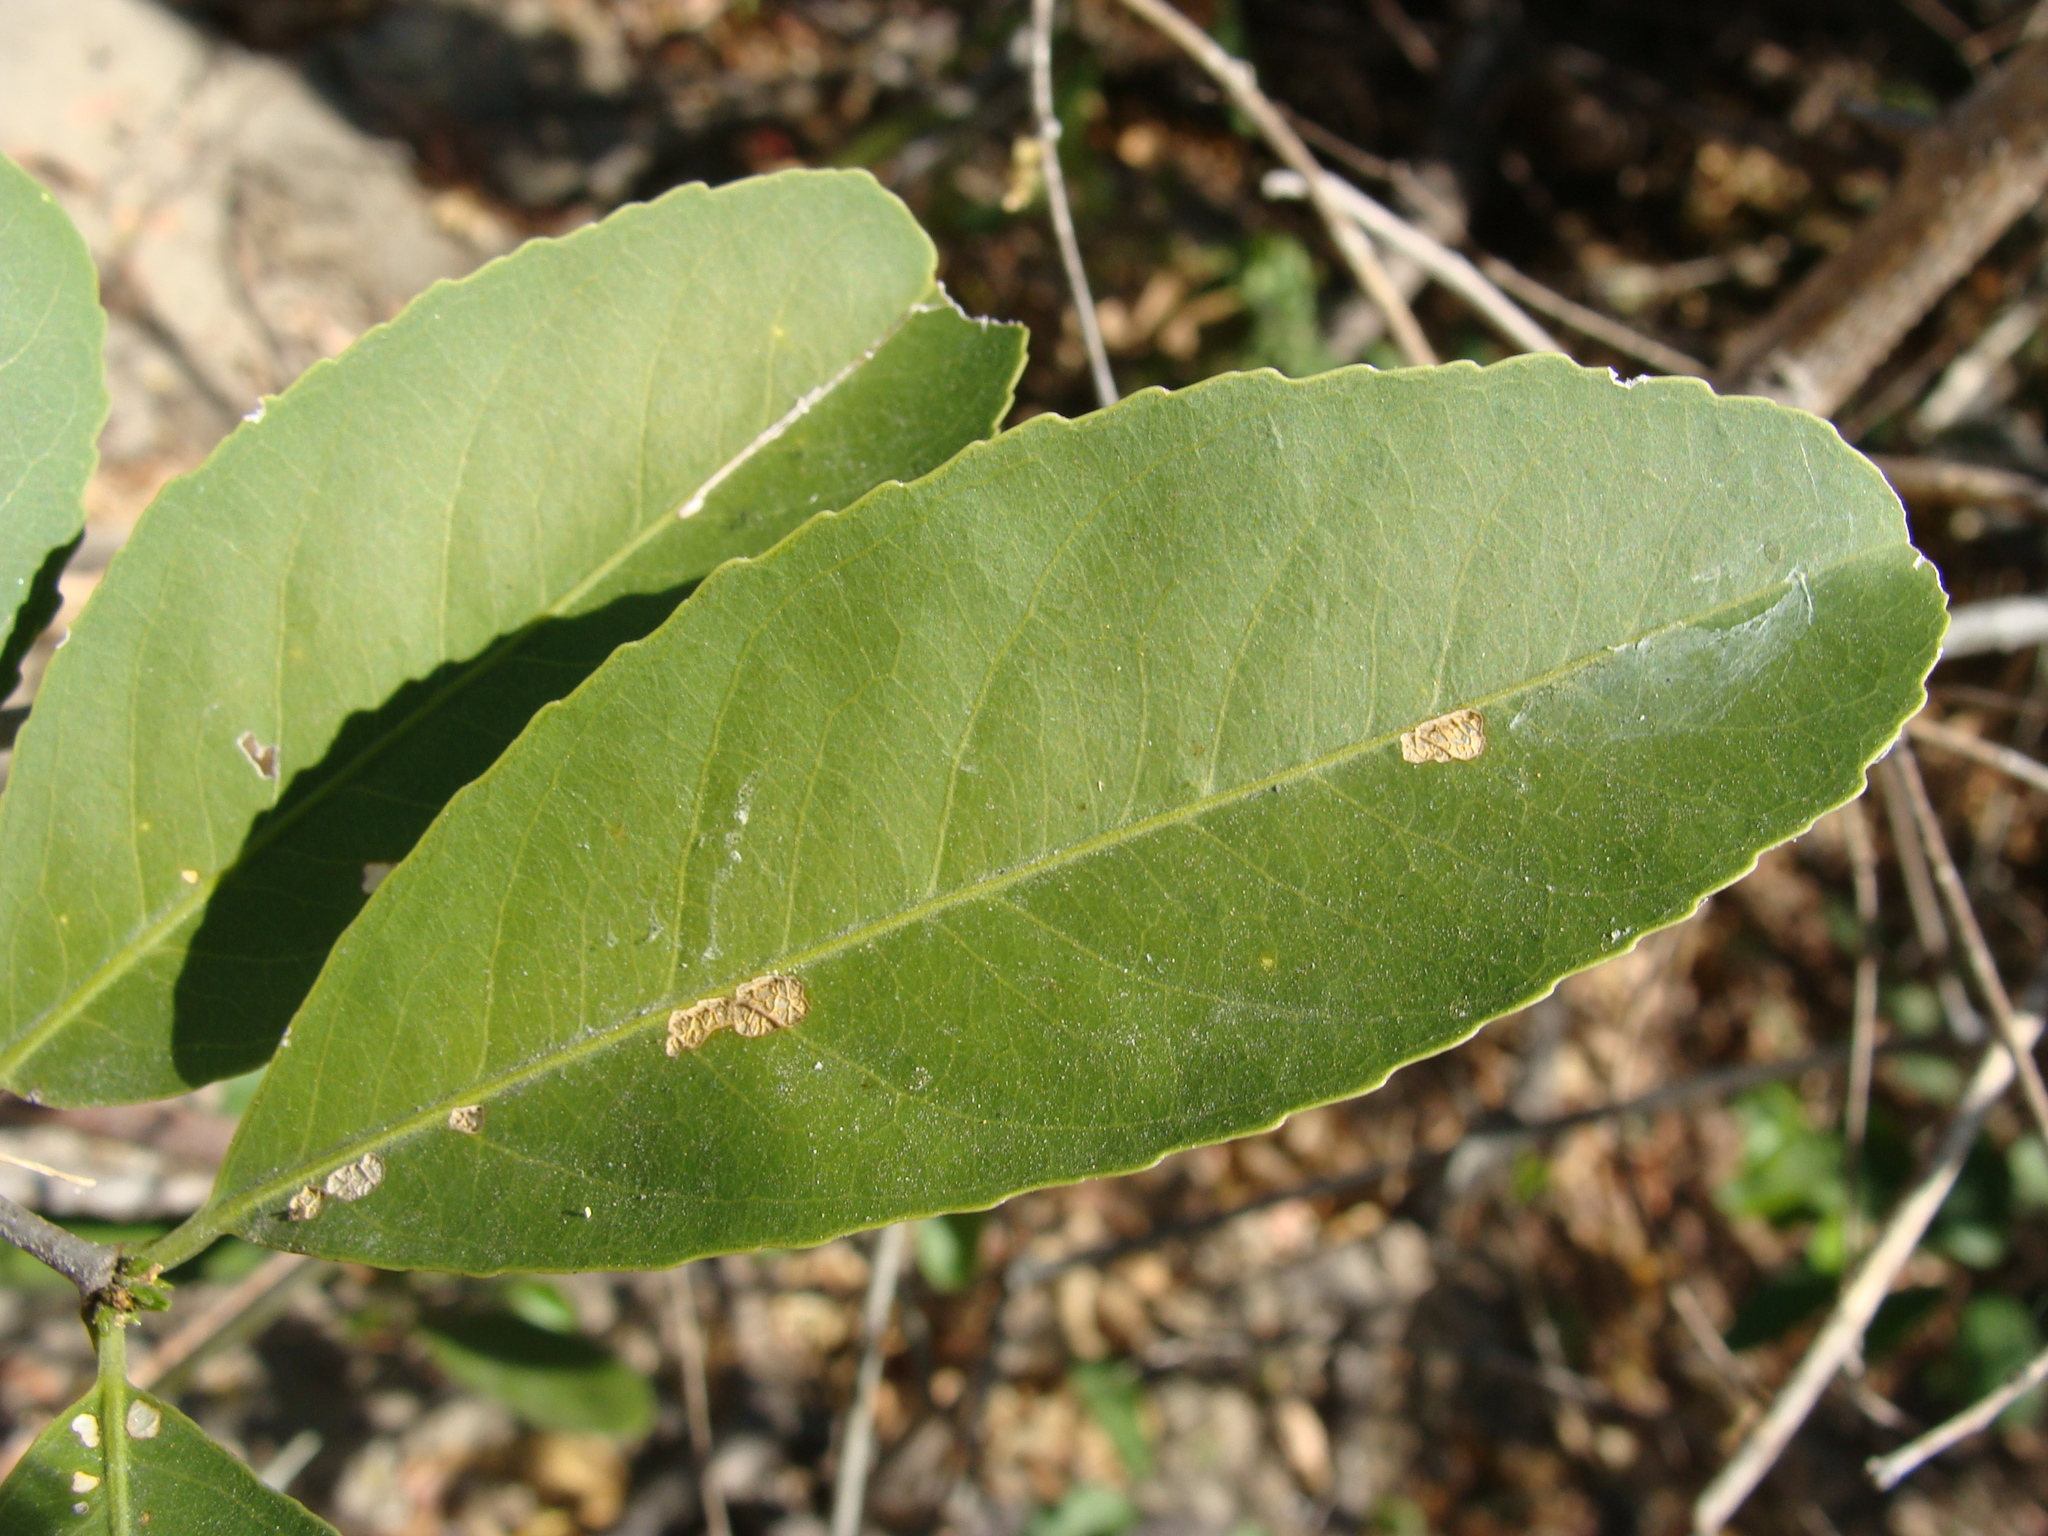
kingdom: Plantae
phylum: Tracheophyta
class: Magnoliopsida
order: Celastrales
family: Celastraceae
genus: Pristimera
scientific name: Pristimera celastroides
